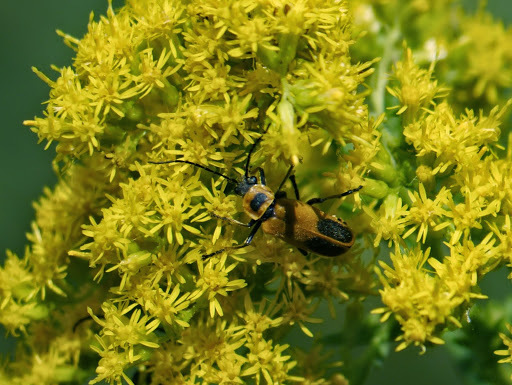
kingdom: Animalia
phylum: Arthropoda
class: Insecta
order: Coleoptera
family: Cantharidae
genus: Chauliognathus
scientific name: Chauliognathus pensylvanicus
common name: Goldenrod soldier beetle
